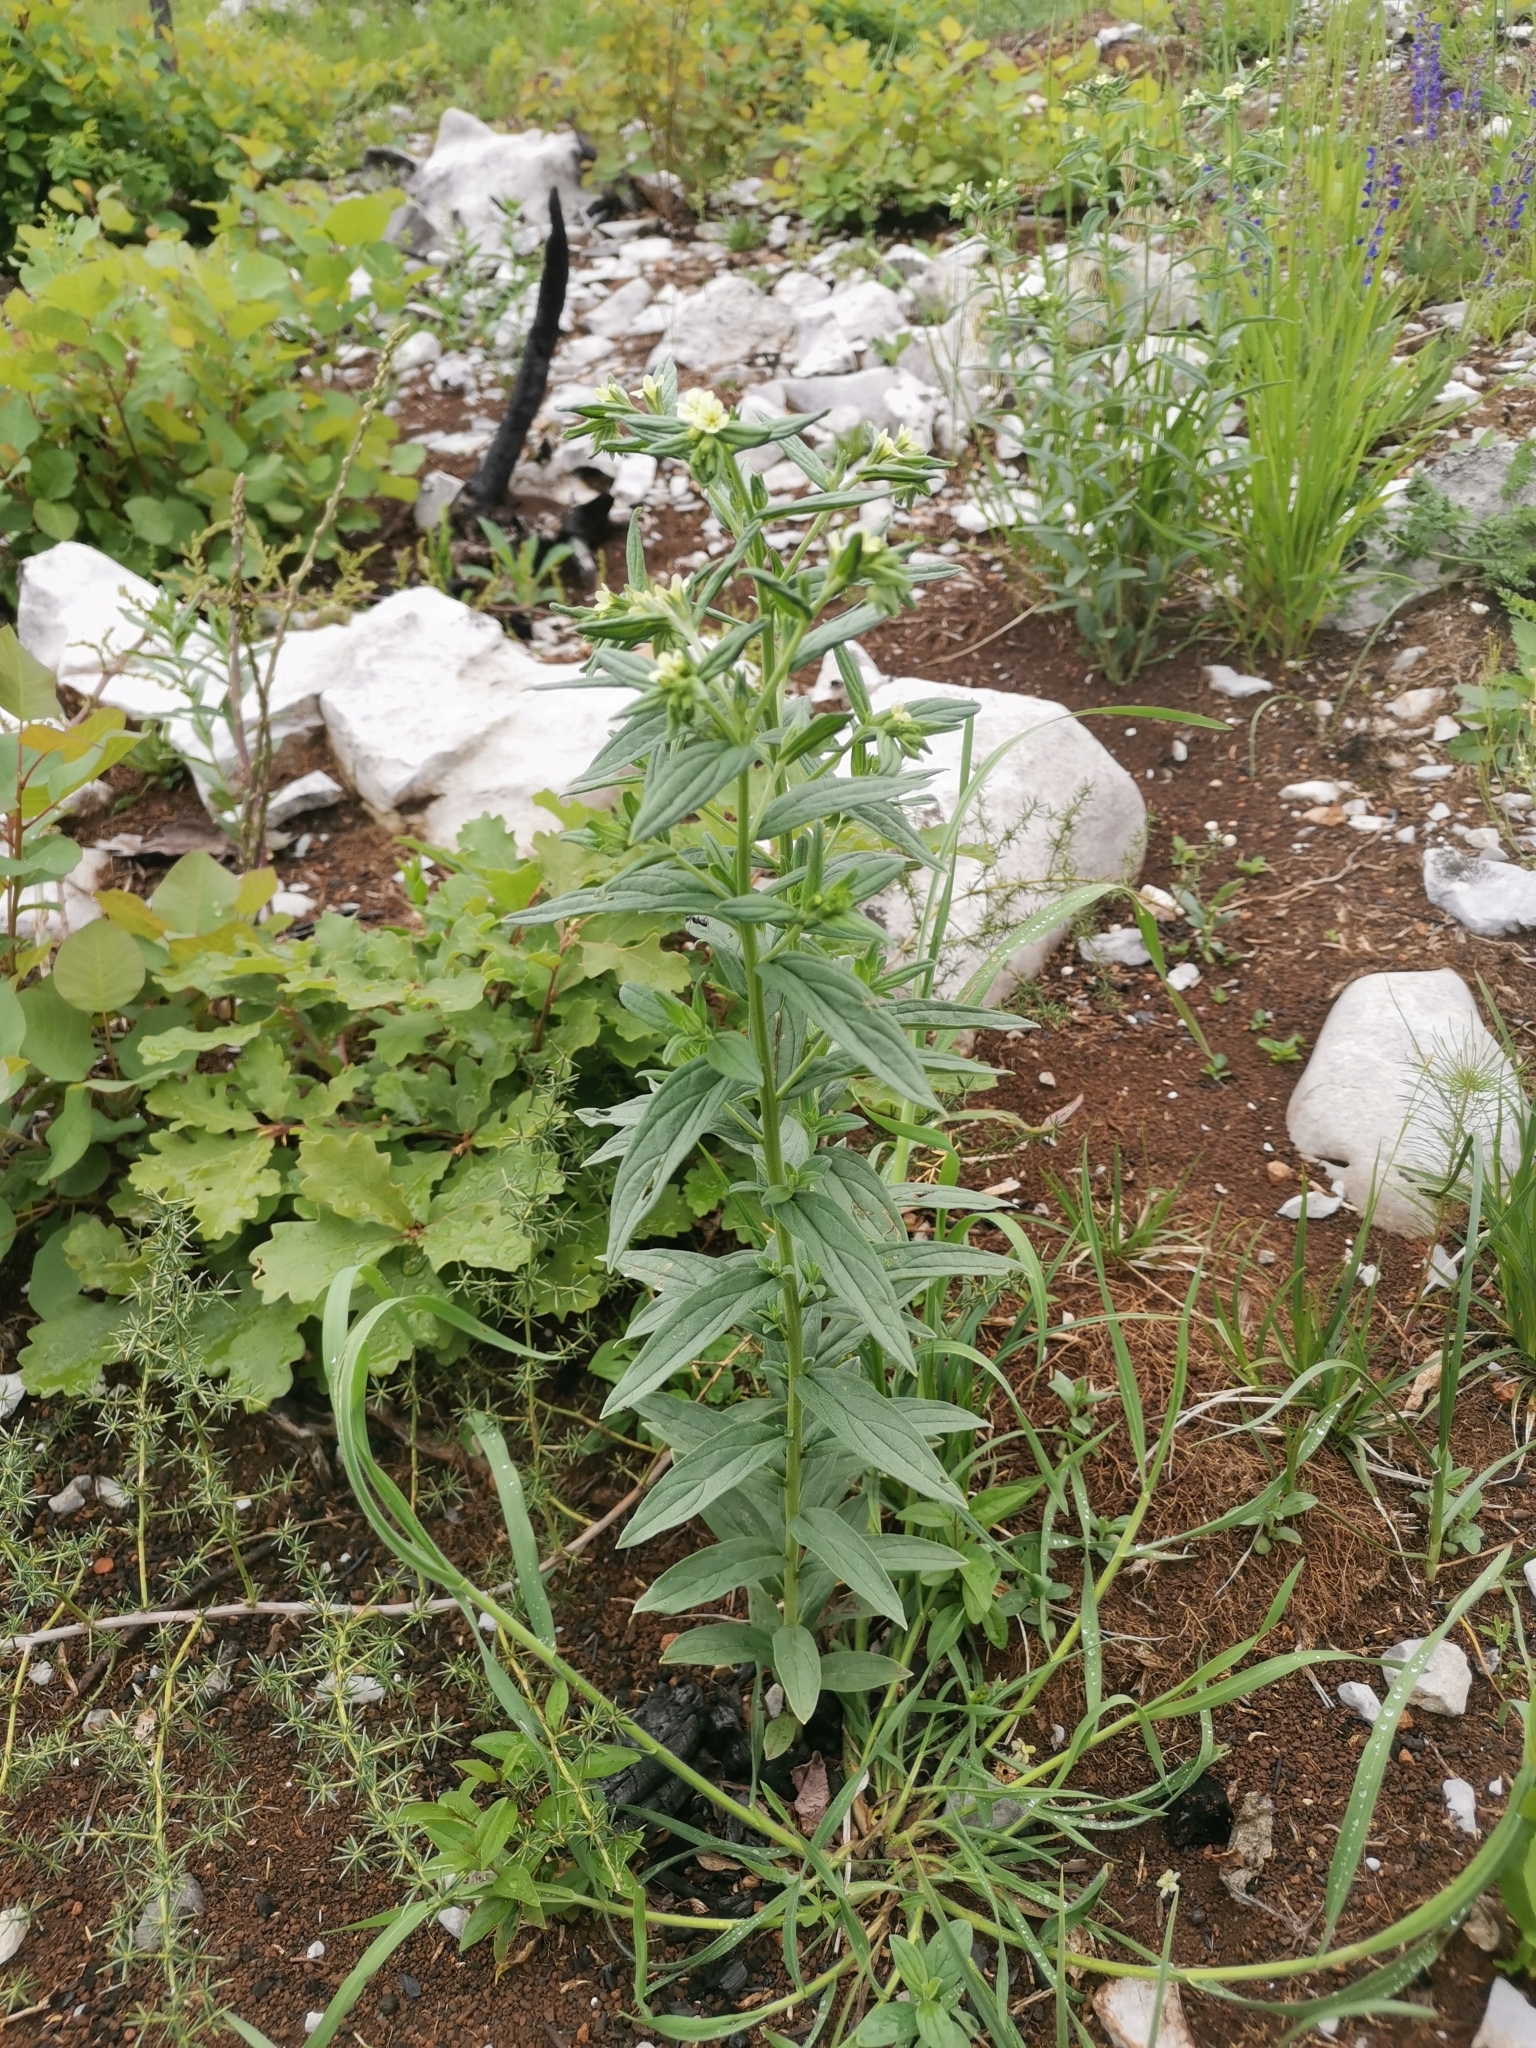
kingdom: Plantae
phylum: Tracheophyta
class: Magnoliopsida
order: Boraginales
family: Boraginaceae
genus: Lithospermum
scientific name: Lithospermum officinale
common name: Common gromwell
